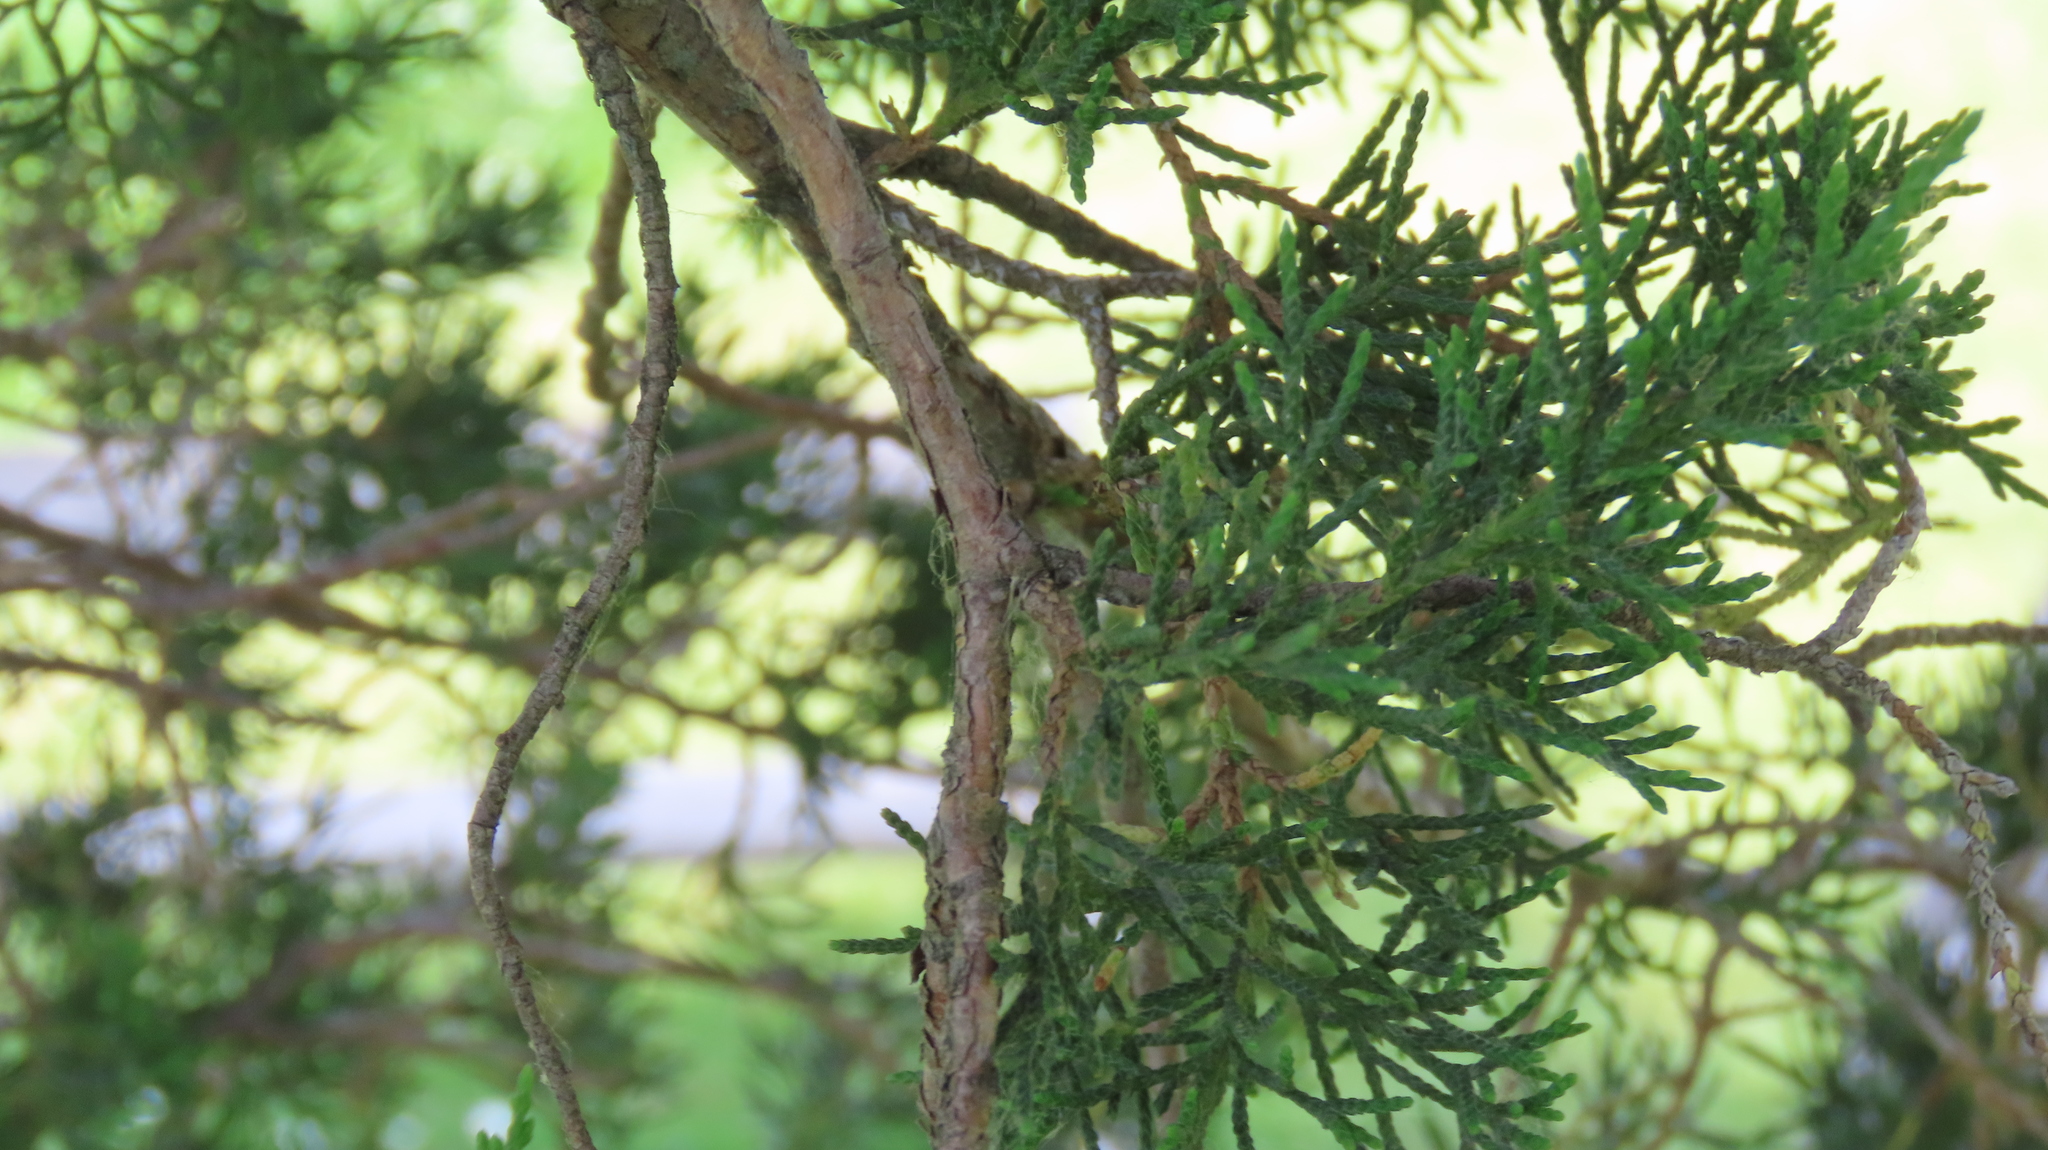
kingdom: Plantae
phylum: Tracheophyta
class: Pinopsida
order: Pinales
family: Cupressaceae
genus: Juniperus
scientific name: Juniperus virginiana
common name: Red juniper
